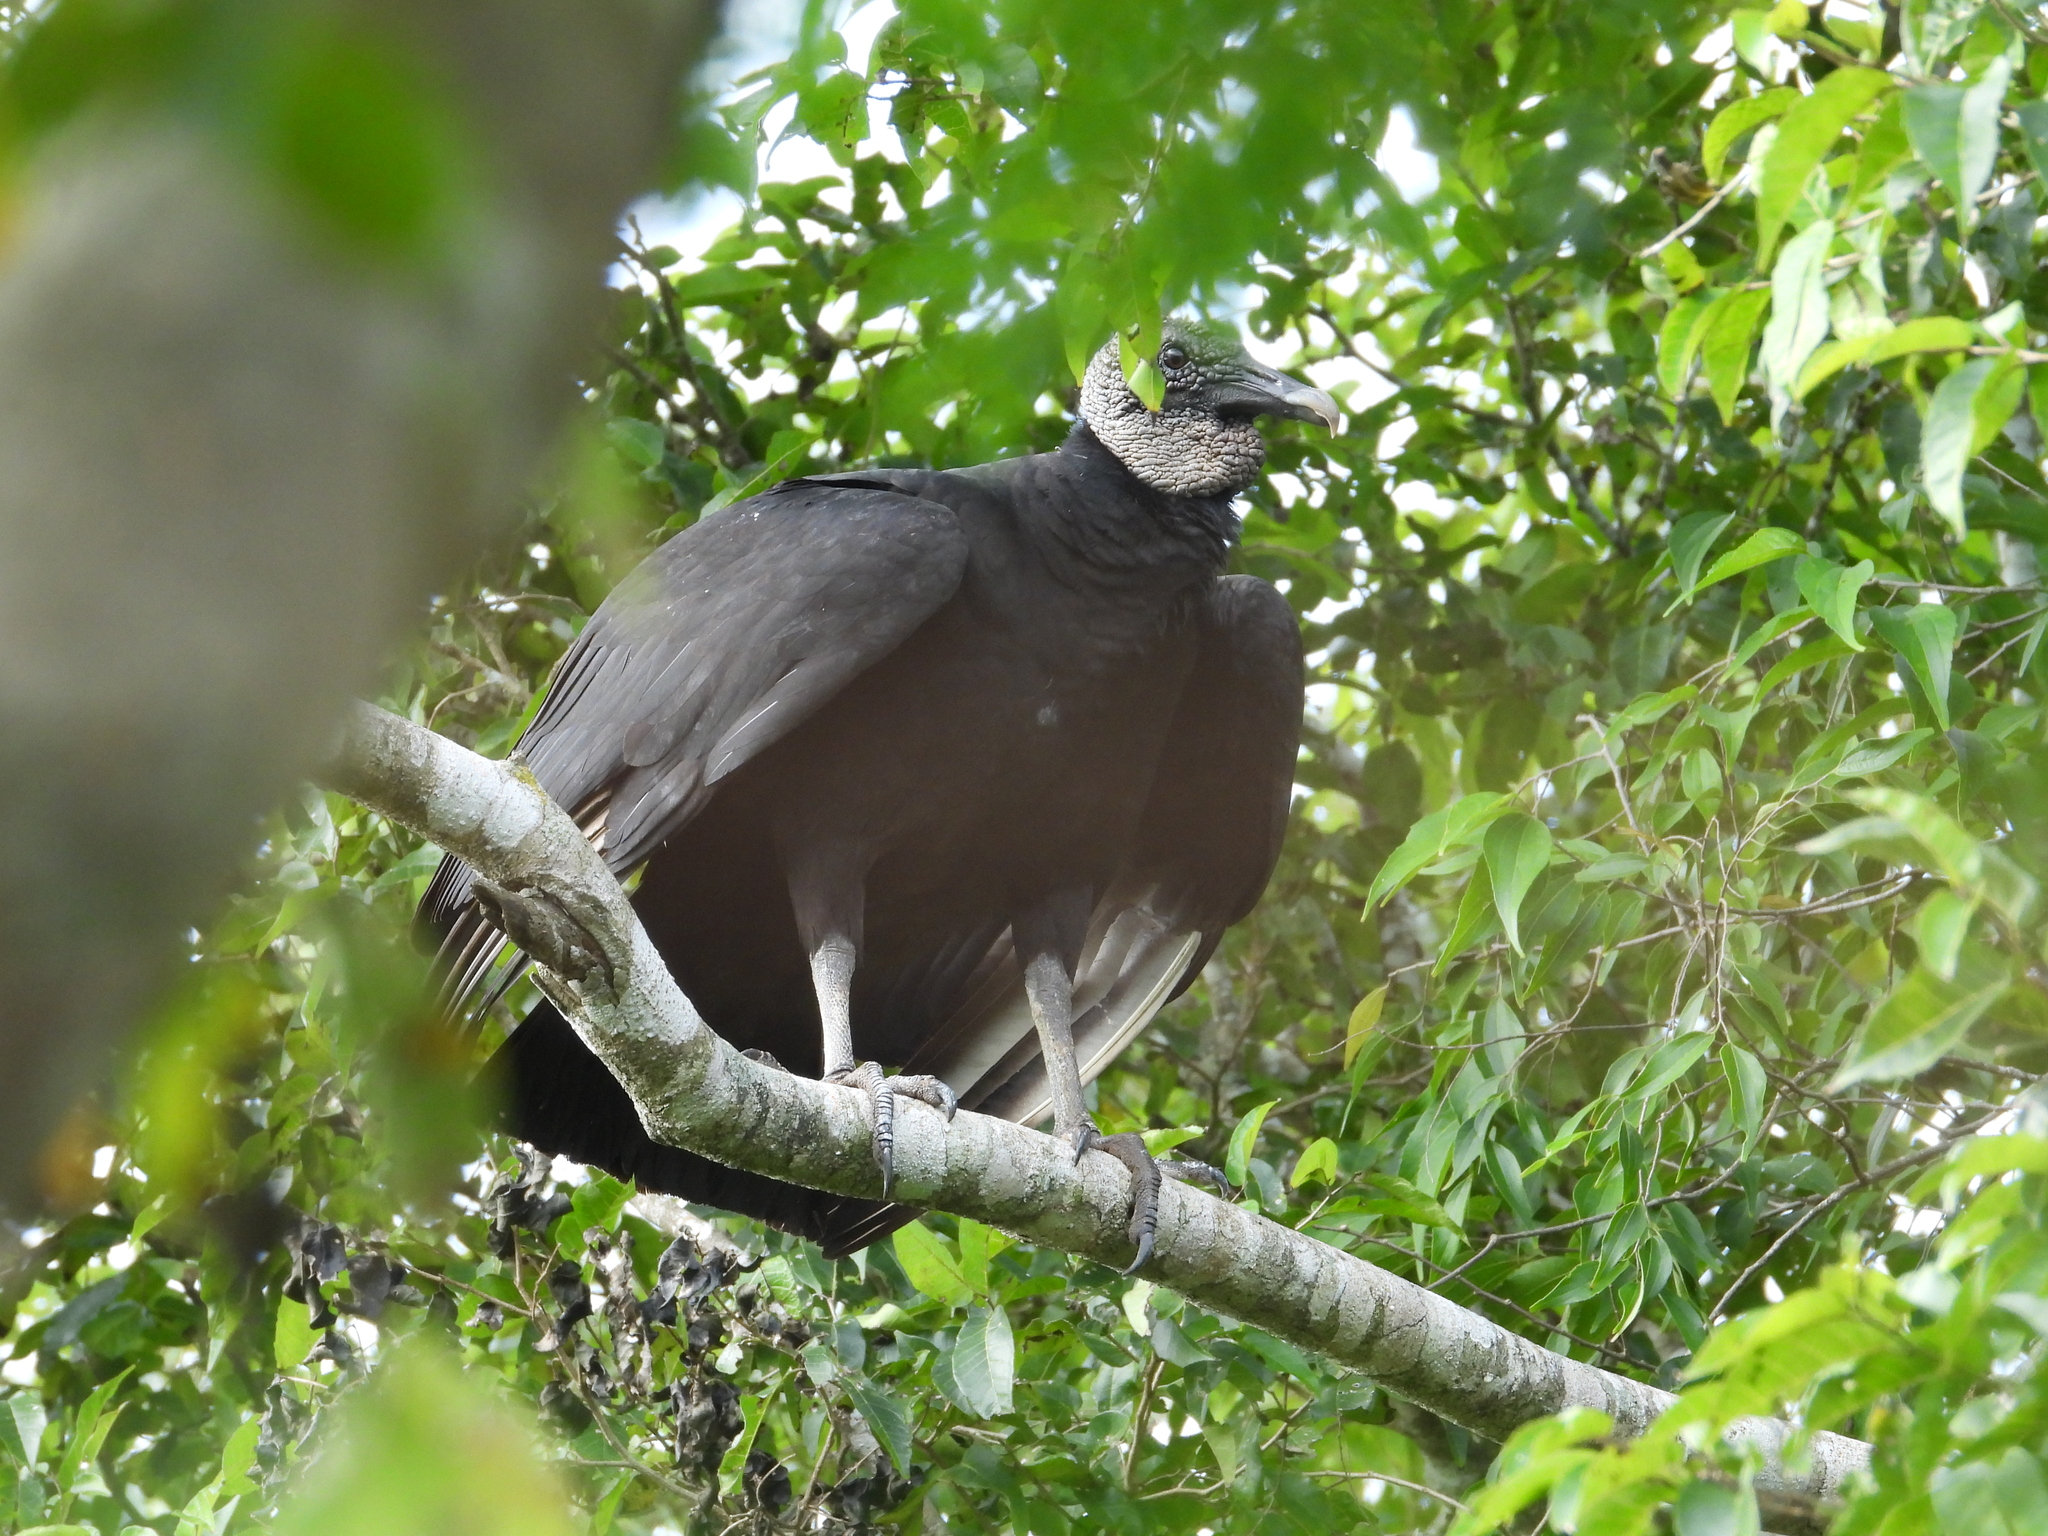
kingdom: Animalia
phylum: Chordata
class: Aves
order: Accipitriformes
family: Cathartidae
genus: Coragyps
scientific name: Coragyps atratus
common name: Black vulture
